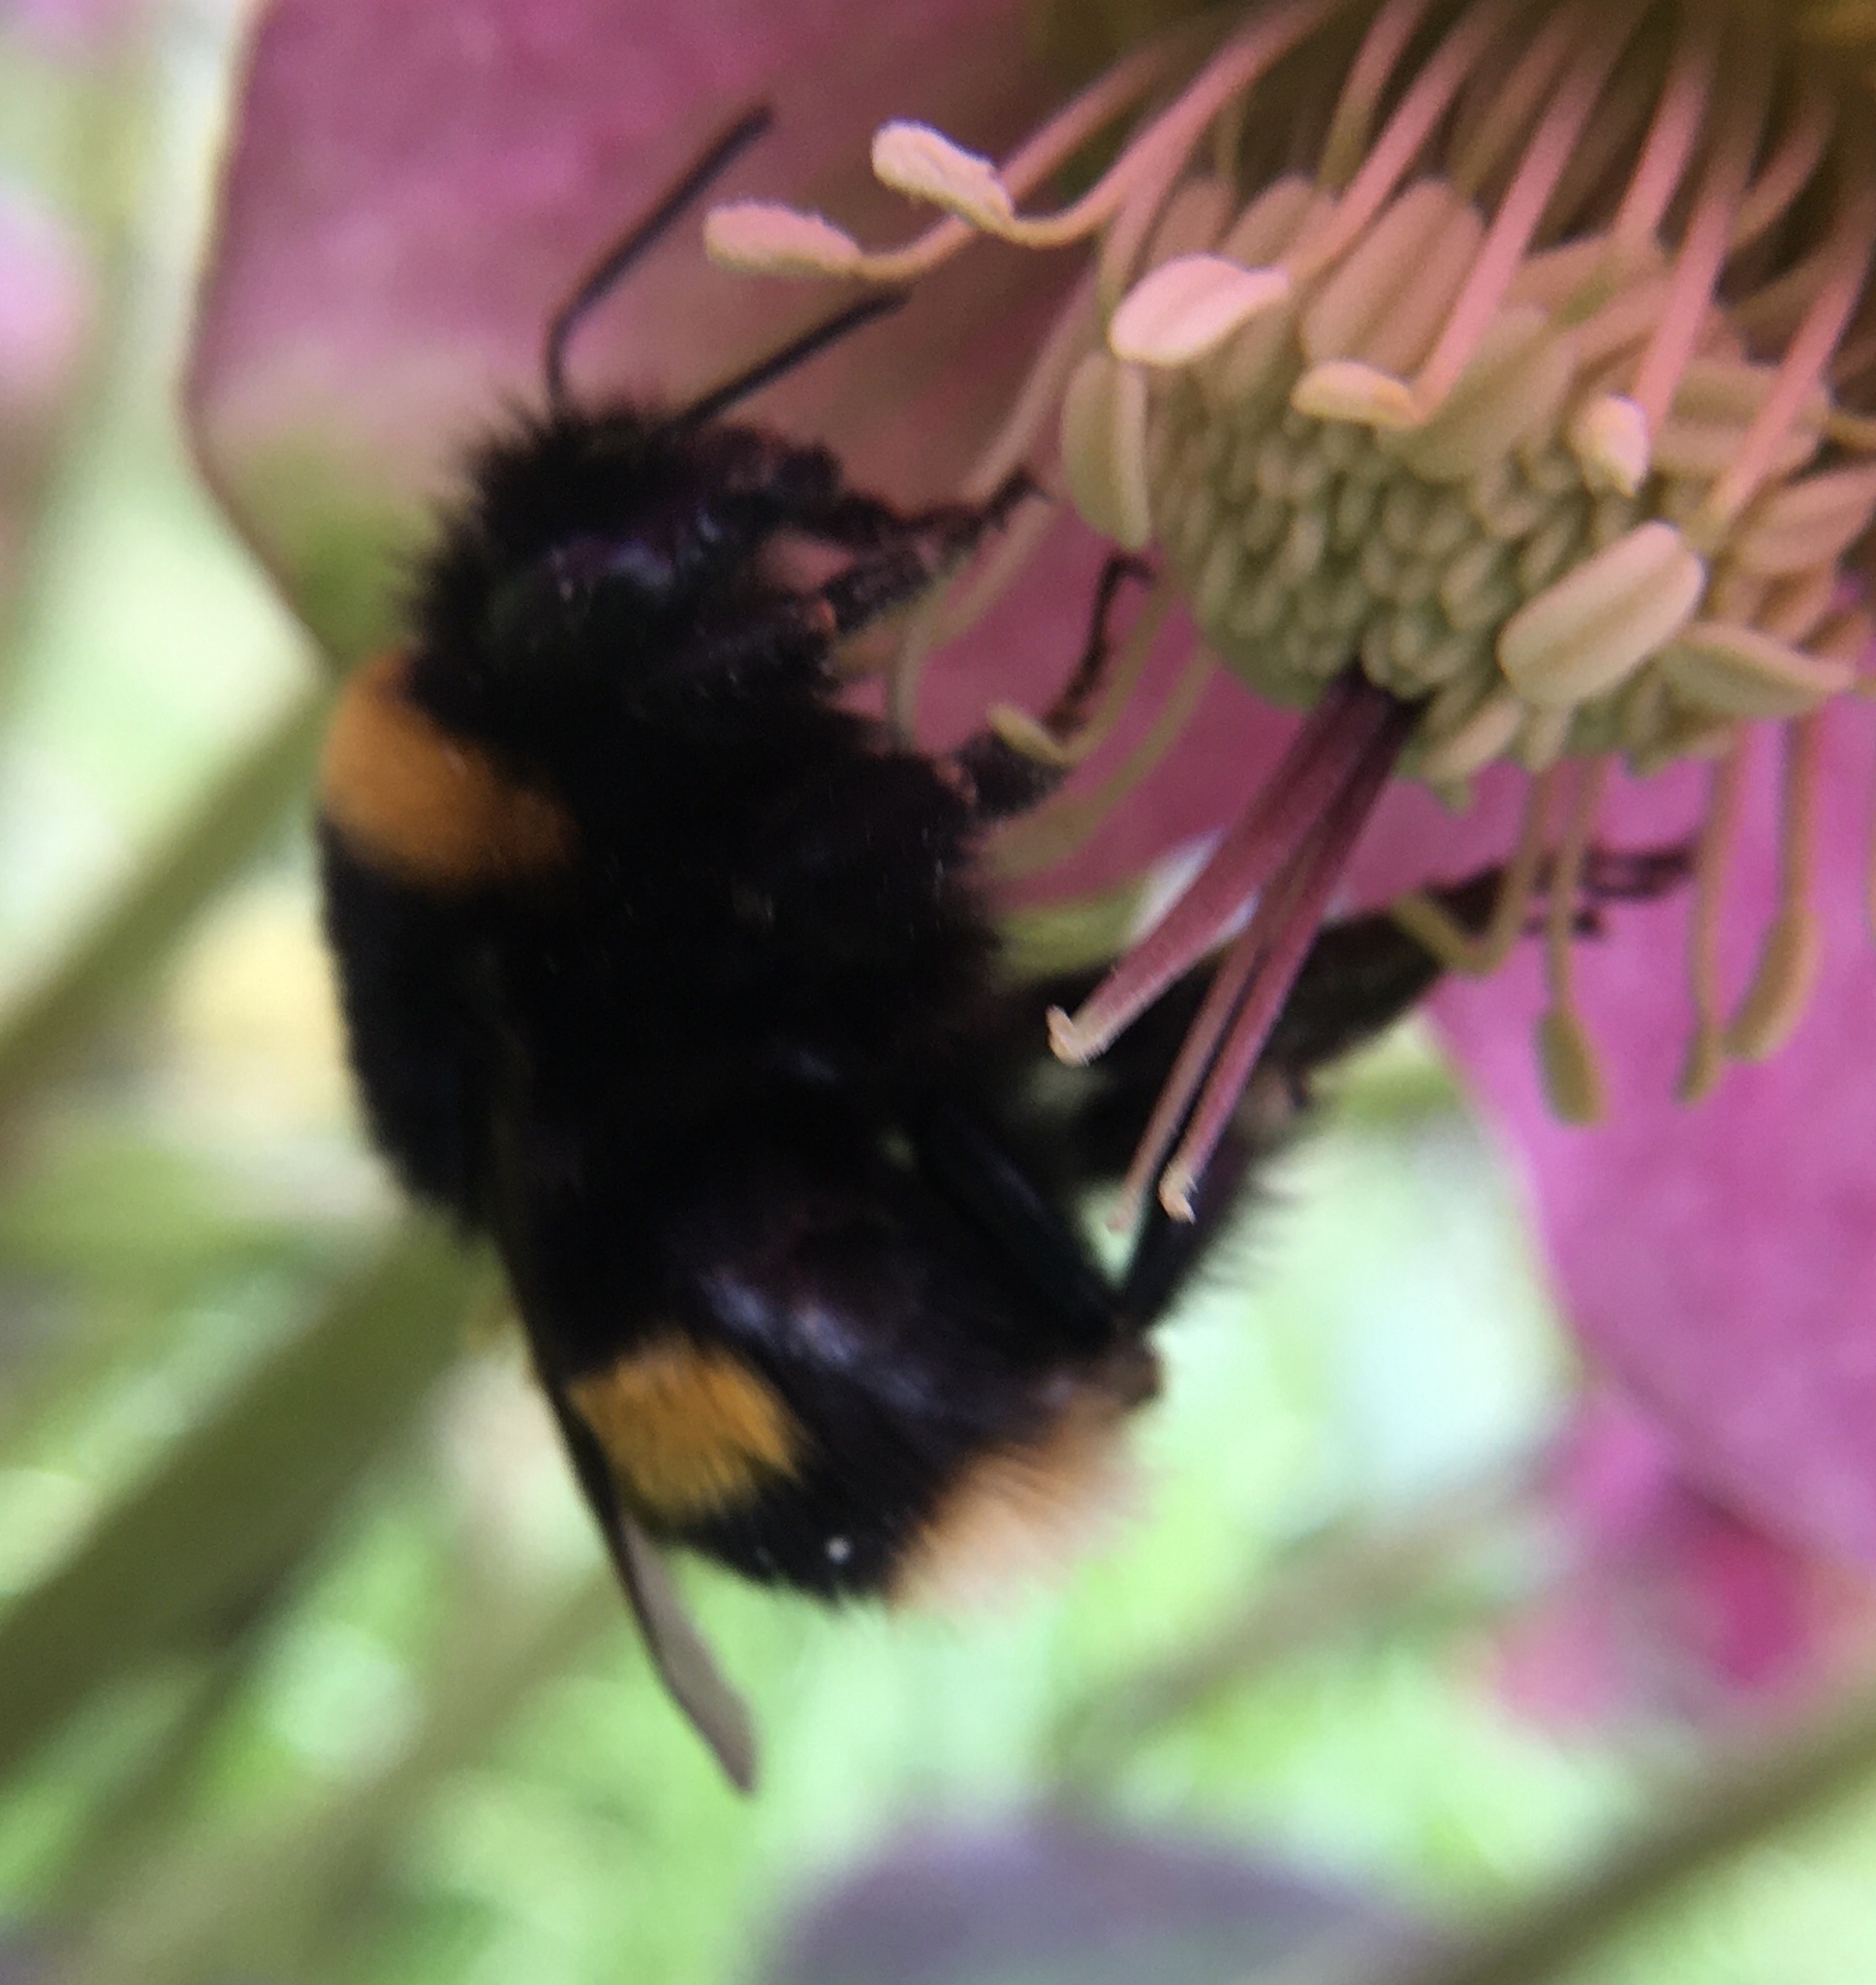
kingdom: Animalia
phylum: Arthropoda
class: Insecta
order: Hymenoptera
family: Apidae
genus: Bombus
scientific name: Bombus terrestris
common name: Buff-tailed bumblebee
